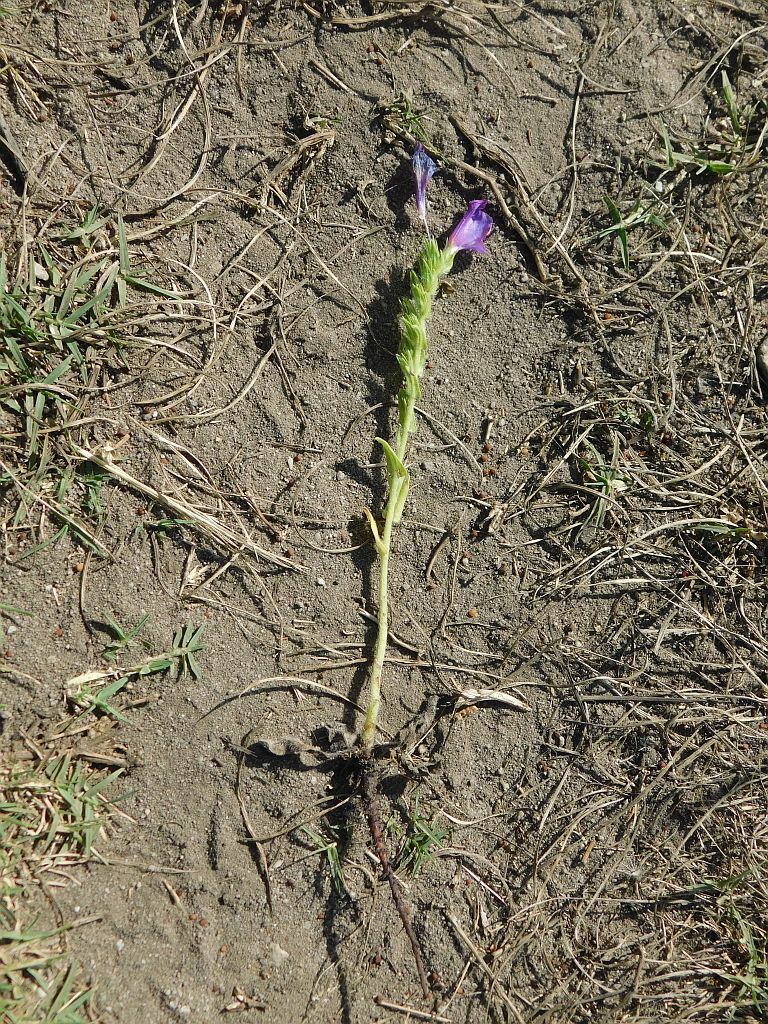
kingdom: Plantae
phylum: Tracheophyta
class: Magnoliopsida
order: Boraginales
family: Boraginaceae
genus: Echium
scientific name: Echium plantagineum
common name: Purple viper's-bugloss
